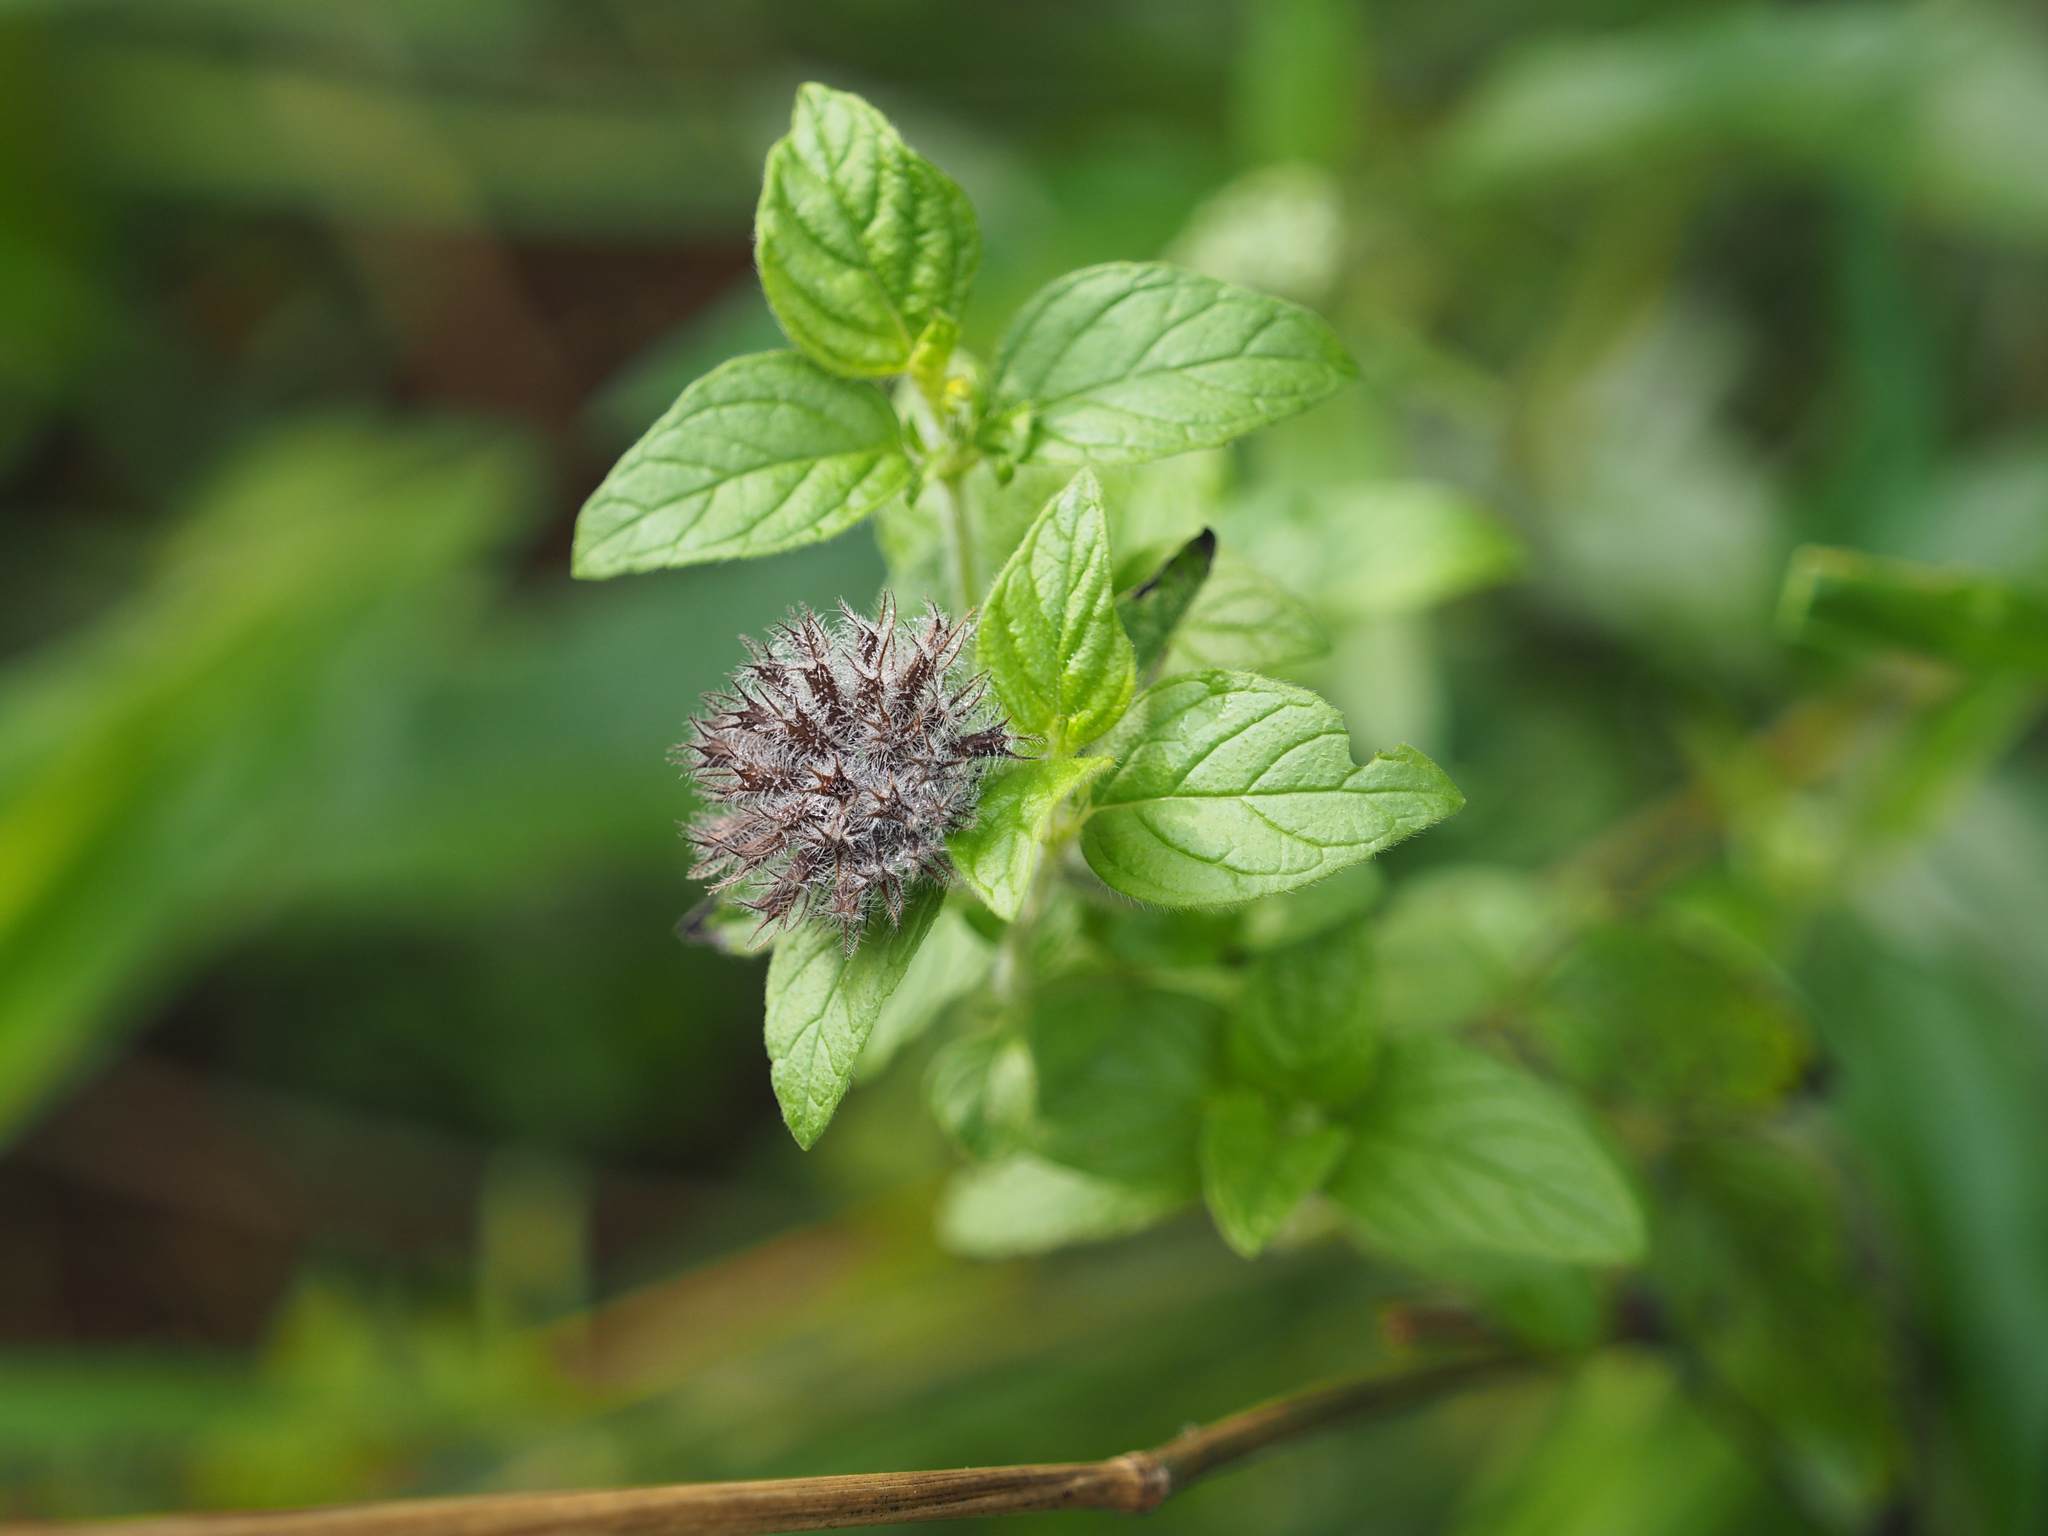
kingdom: Plantae
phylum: Tracheophyta
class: Magnoliopsida
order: Lamiales
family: Lamiaceae
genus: Clinopodium
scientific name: Clinopodium vulgare
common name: Wild basil
